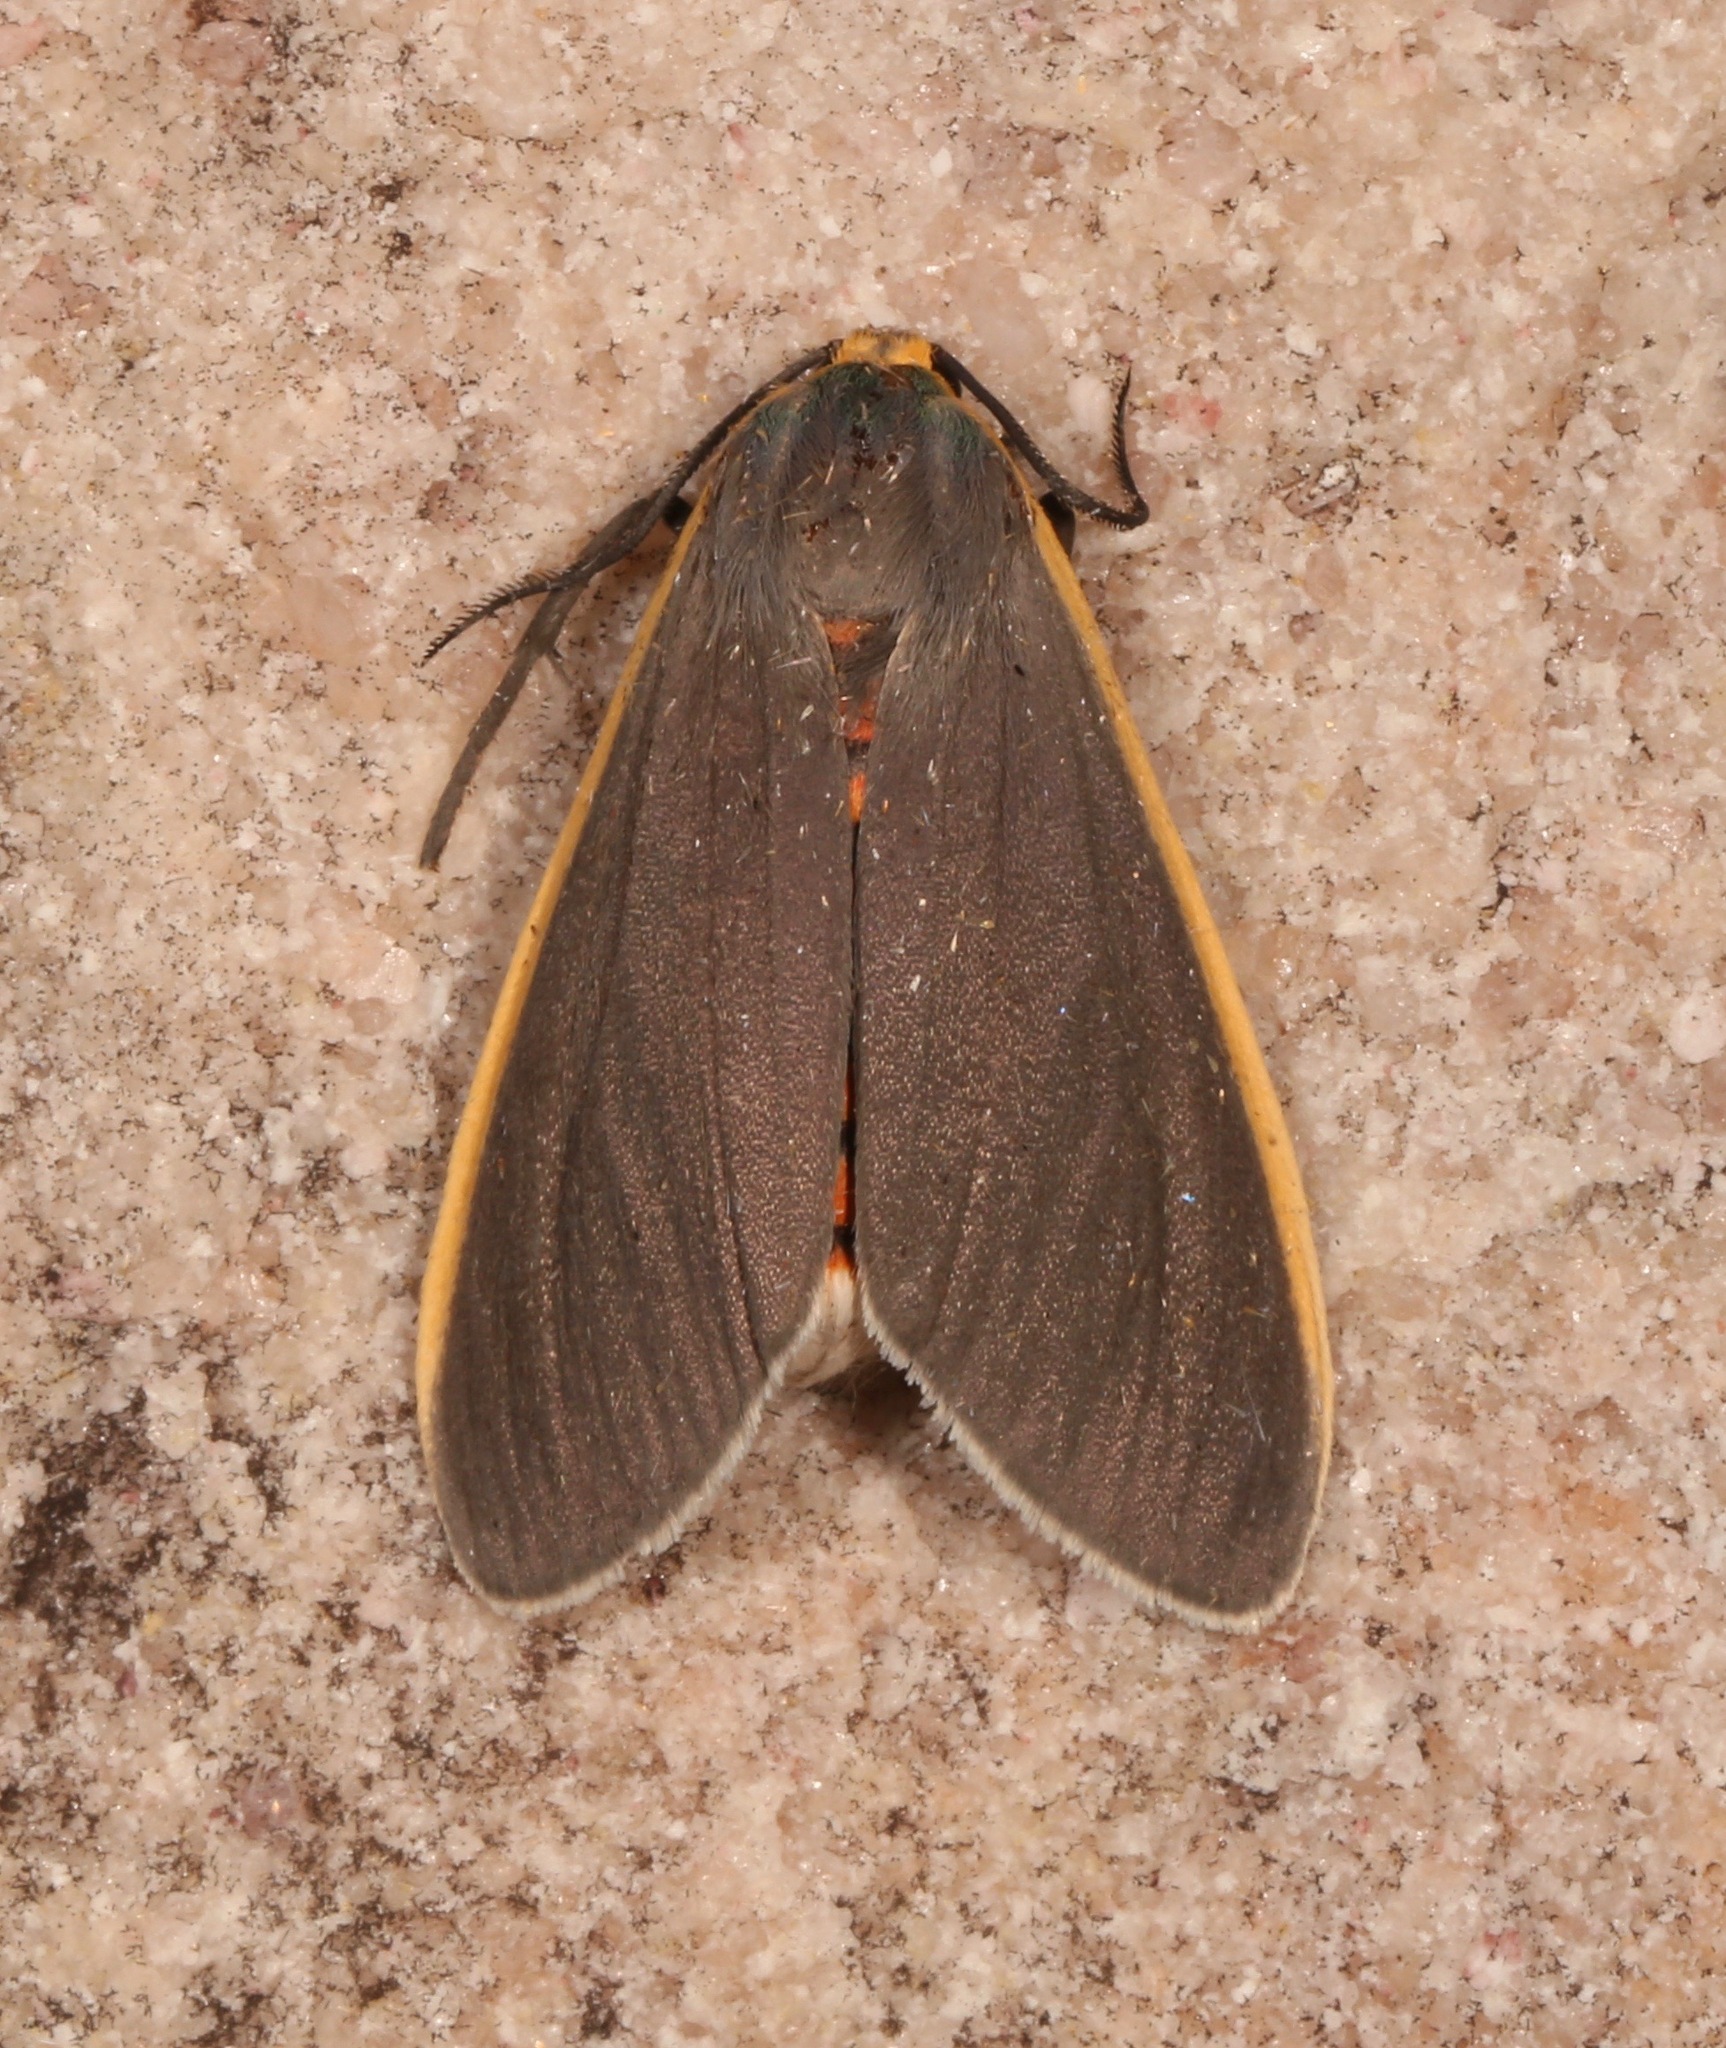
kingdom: Animalia
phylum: Arthropoda
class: Insecta
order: Lepidoptera
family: Erebidae
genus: Euchaetes
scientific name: Euchaetes antica
